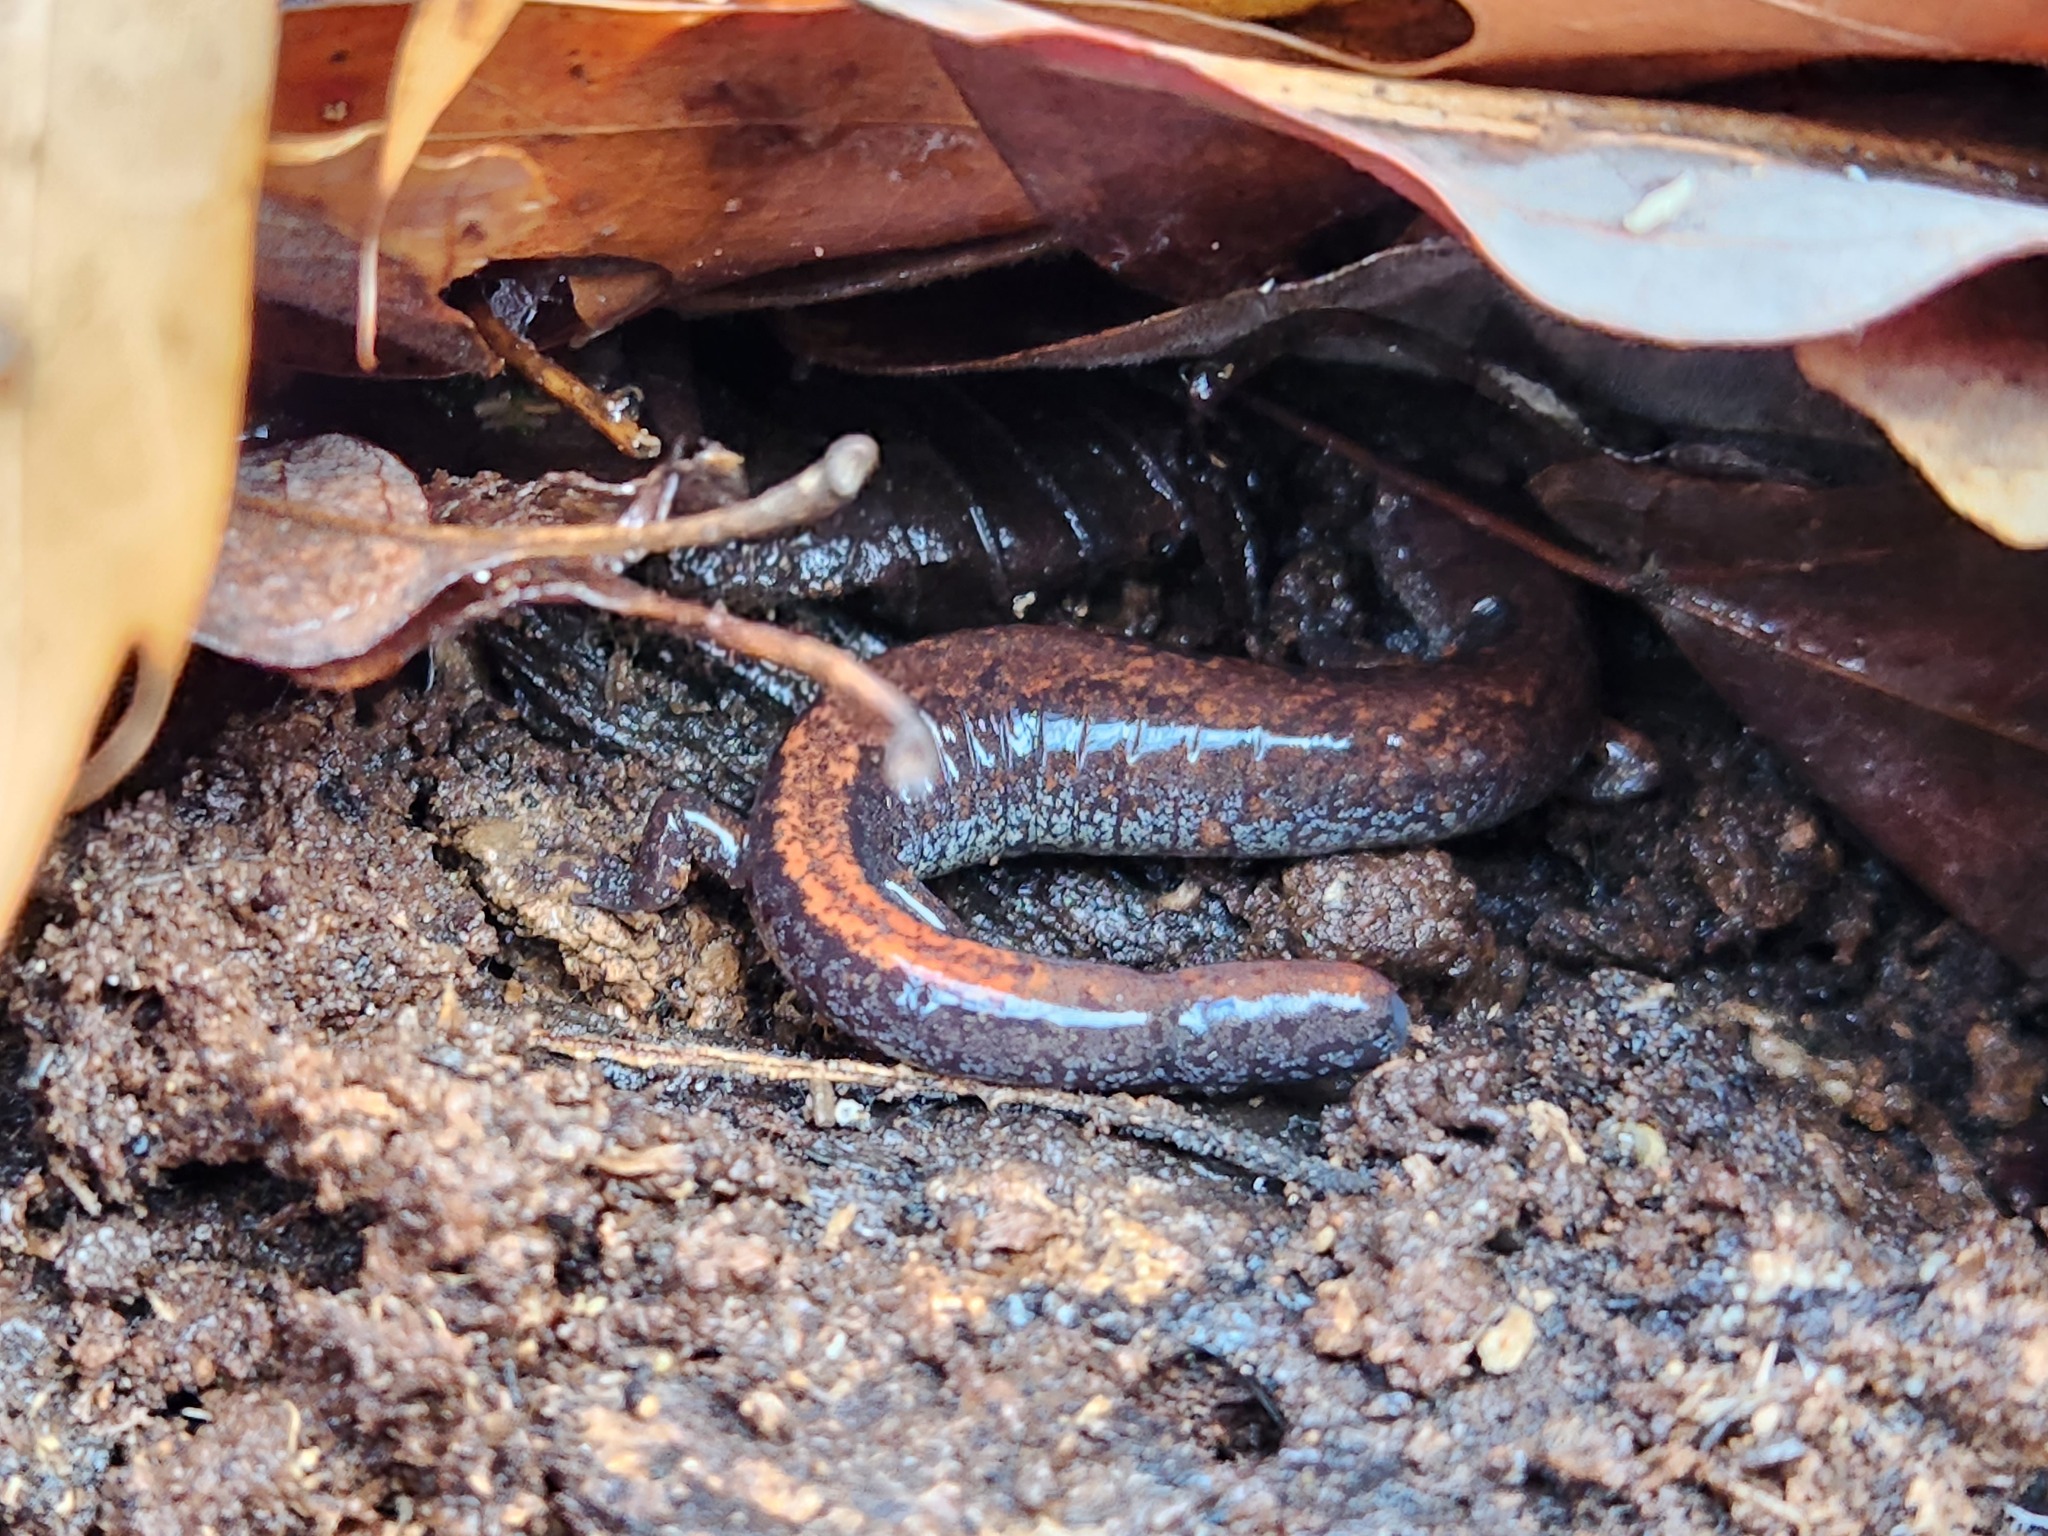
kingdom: Animalia
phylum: Chordata
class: Amphibia
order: Caudata
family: Plethodontidae
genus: Plethodon
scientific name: Plethodon dorsalis
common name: Northern zigzag salamander
